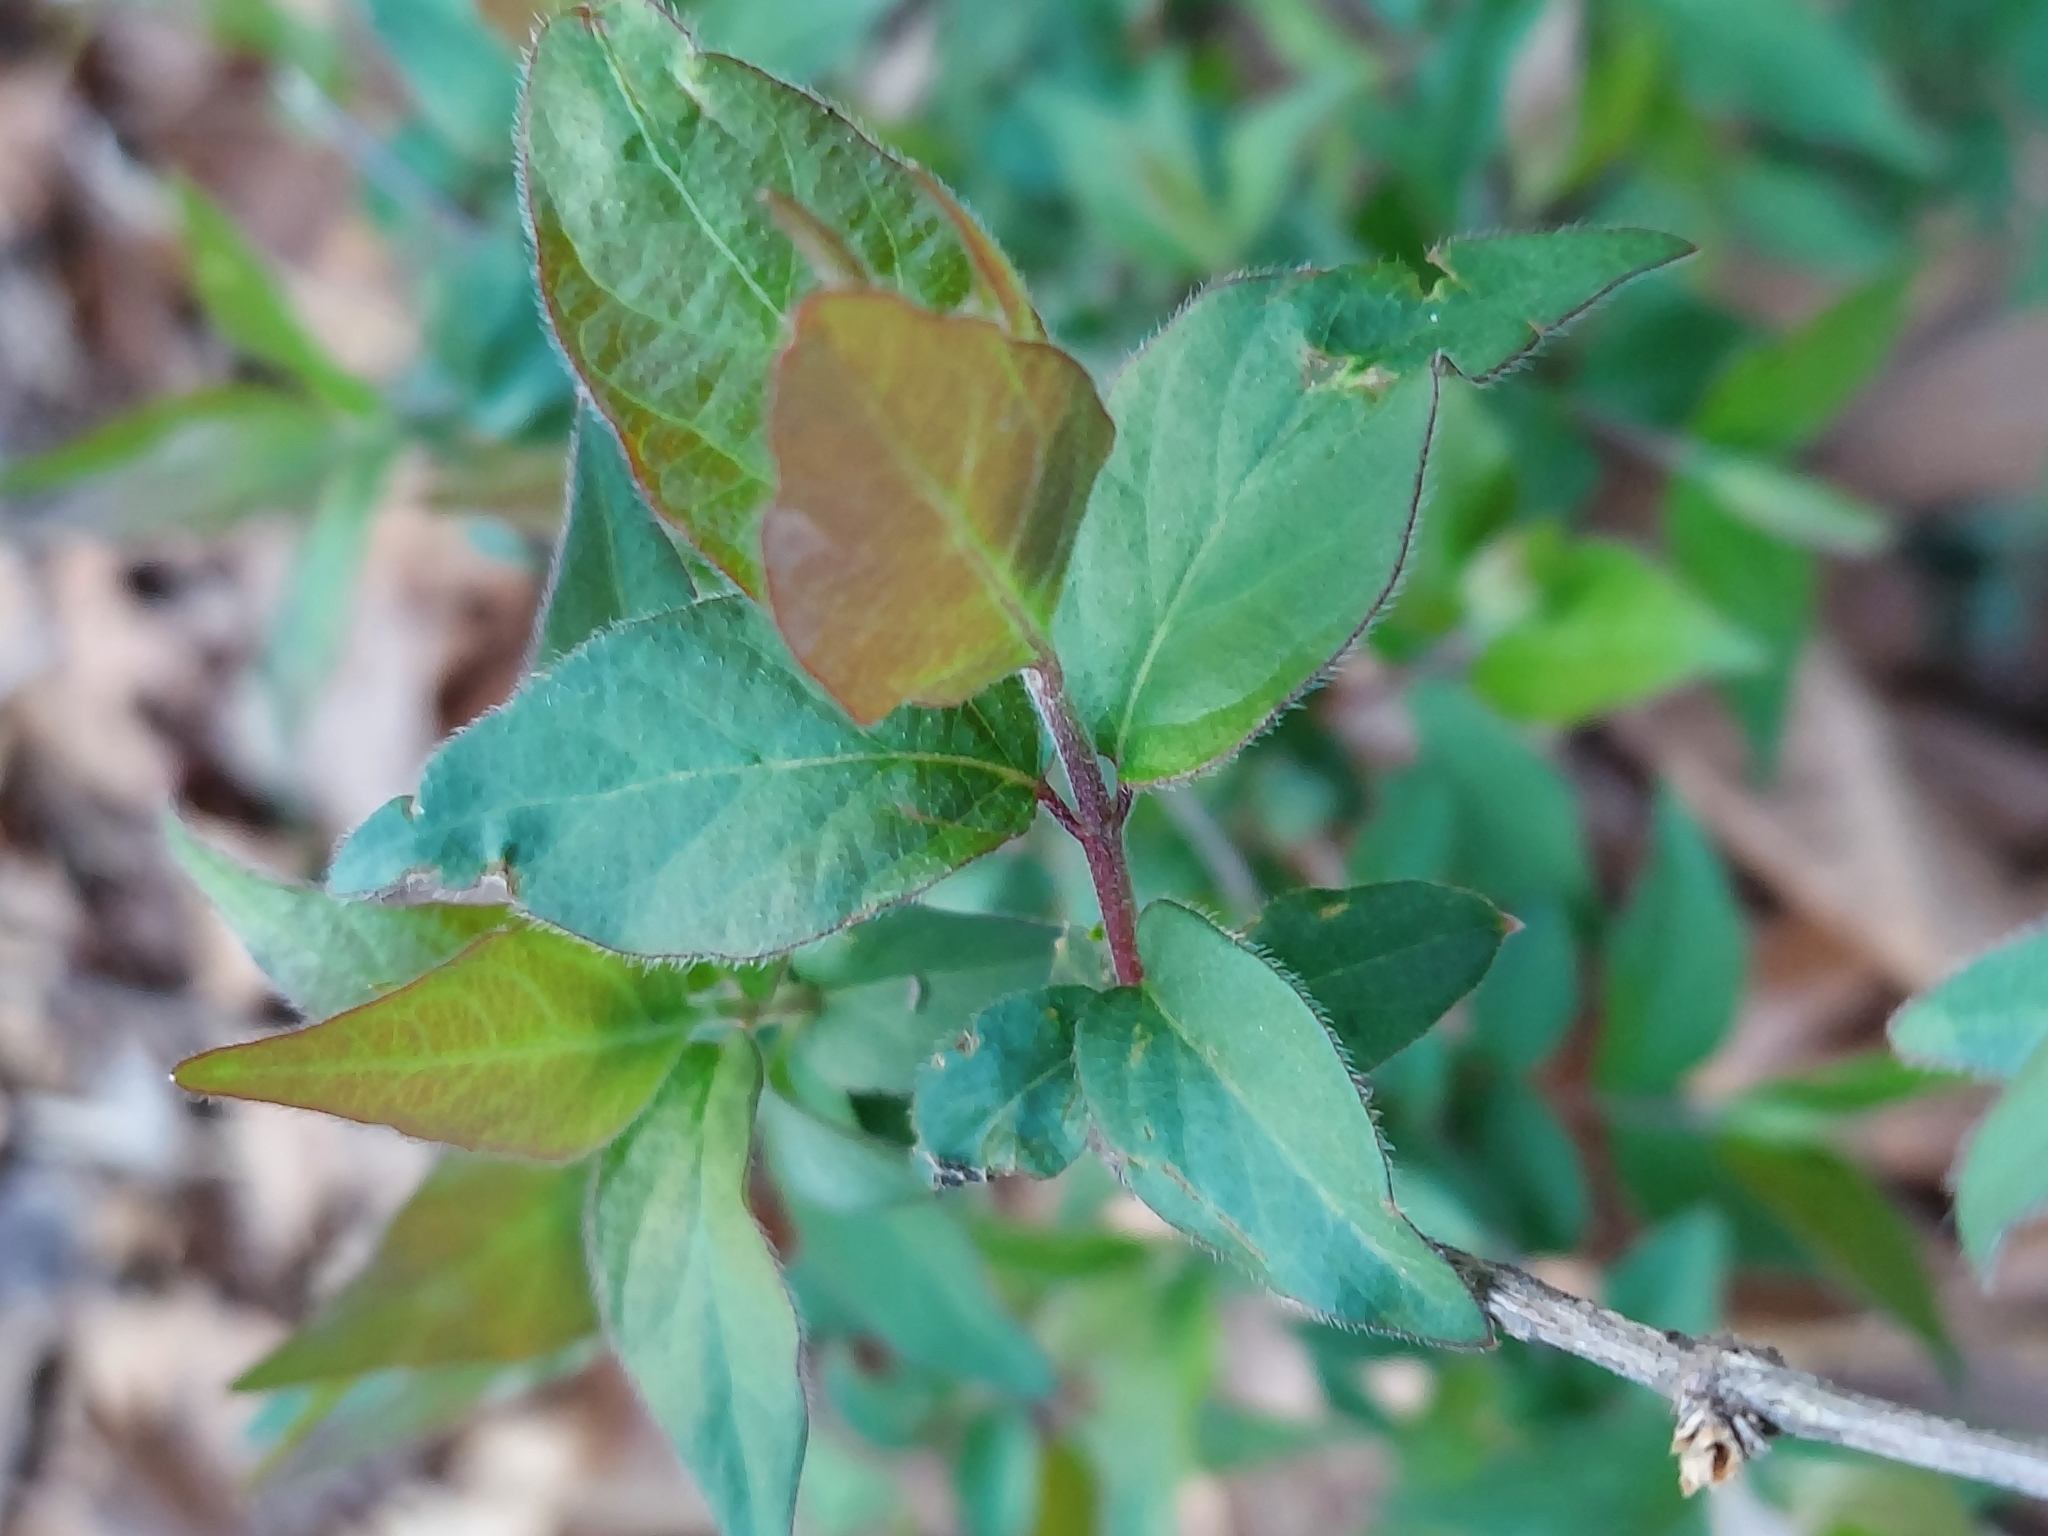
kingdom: Plantae
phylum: Tracheophyta
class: Magnoliopsida
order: Dipsacales
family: Caprifoliaceae
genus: Lonicera
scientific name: Lonicera maackii
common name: Amur honeysuckle
